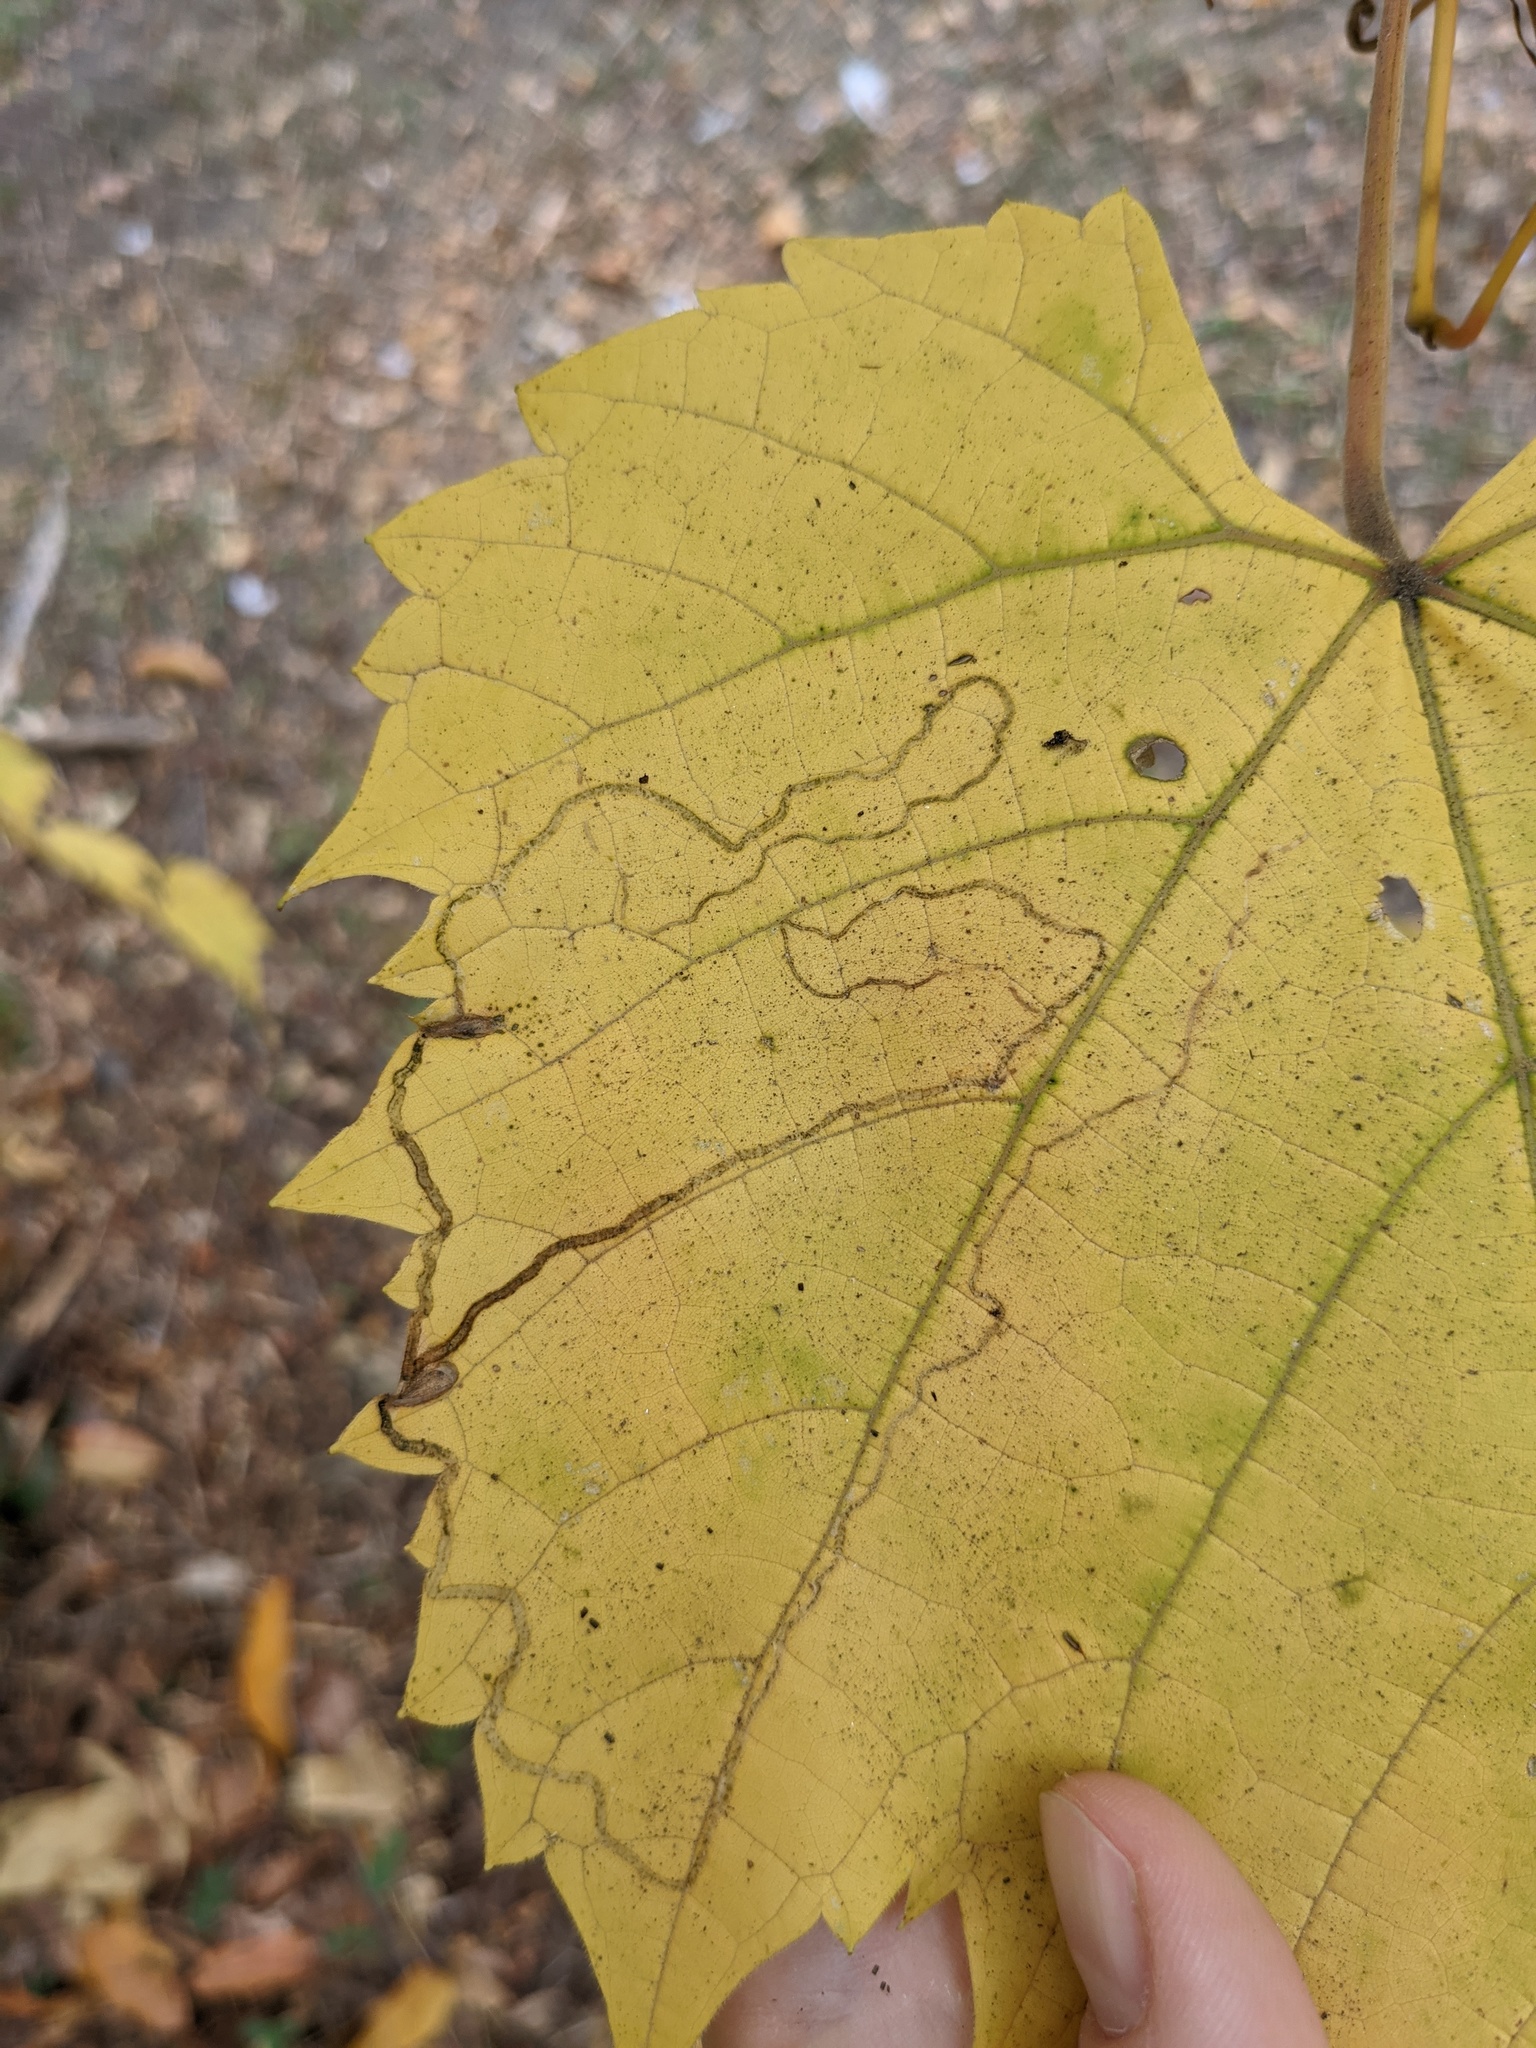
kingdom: Animalia
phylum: Arthropoda
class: Insecta
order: Lepidoptera
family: Gracillariidae
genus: Phyllocnistis
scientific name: Phyllocnistis vitifoliella
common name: Grape leaf-miner moth
